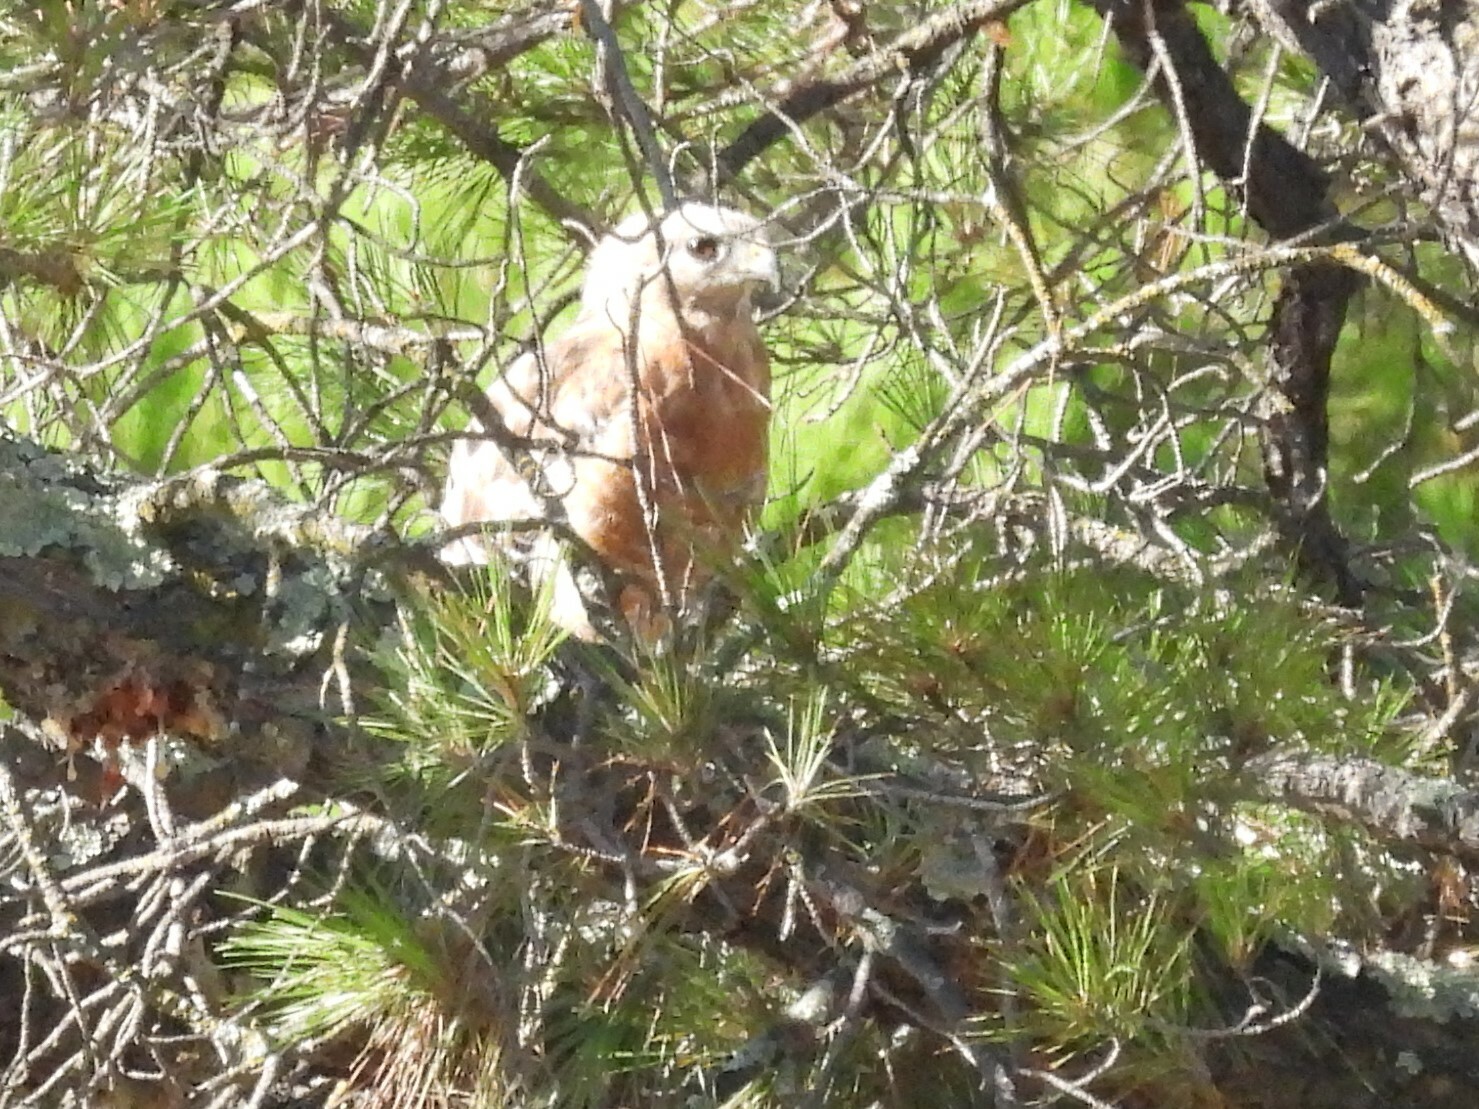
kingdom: Animalia
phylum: Chordata
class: Aves
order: Accipitriformes
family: Accipitridae
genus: Buteo
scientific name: Buteo lineatus
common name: Red-shouldered hawk
